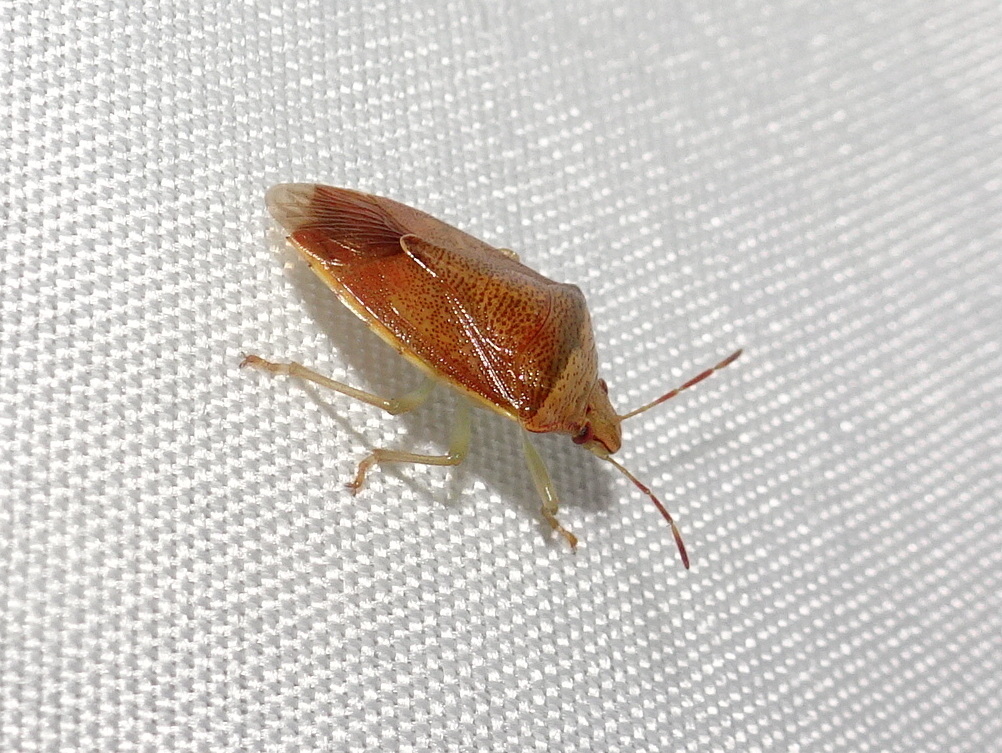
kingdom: Animalia
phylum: Arthropoda
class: Insecta
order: Hemiptera
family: Pentatomidae
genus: Banasa
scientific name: Banasa calva
